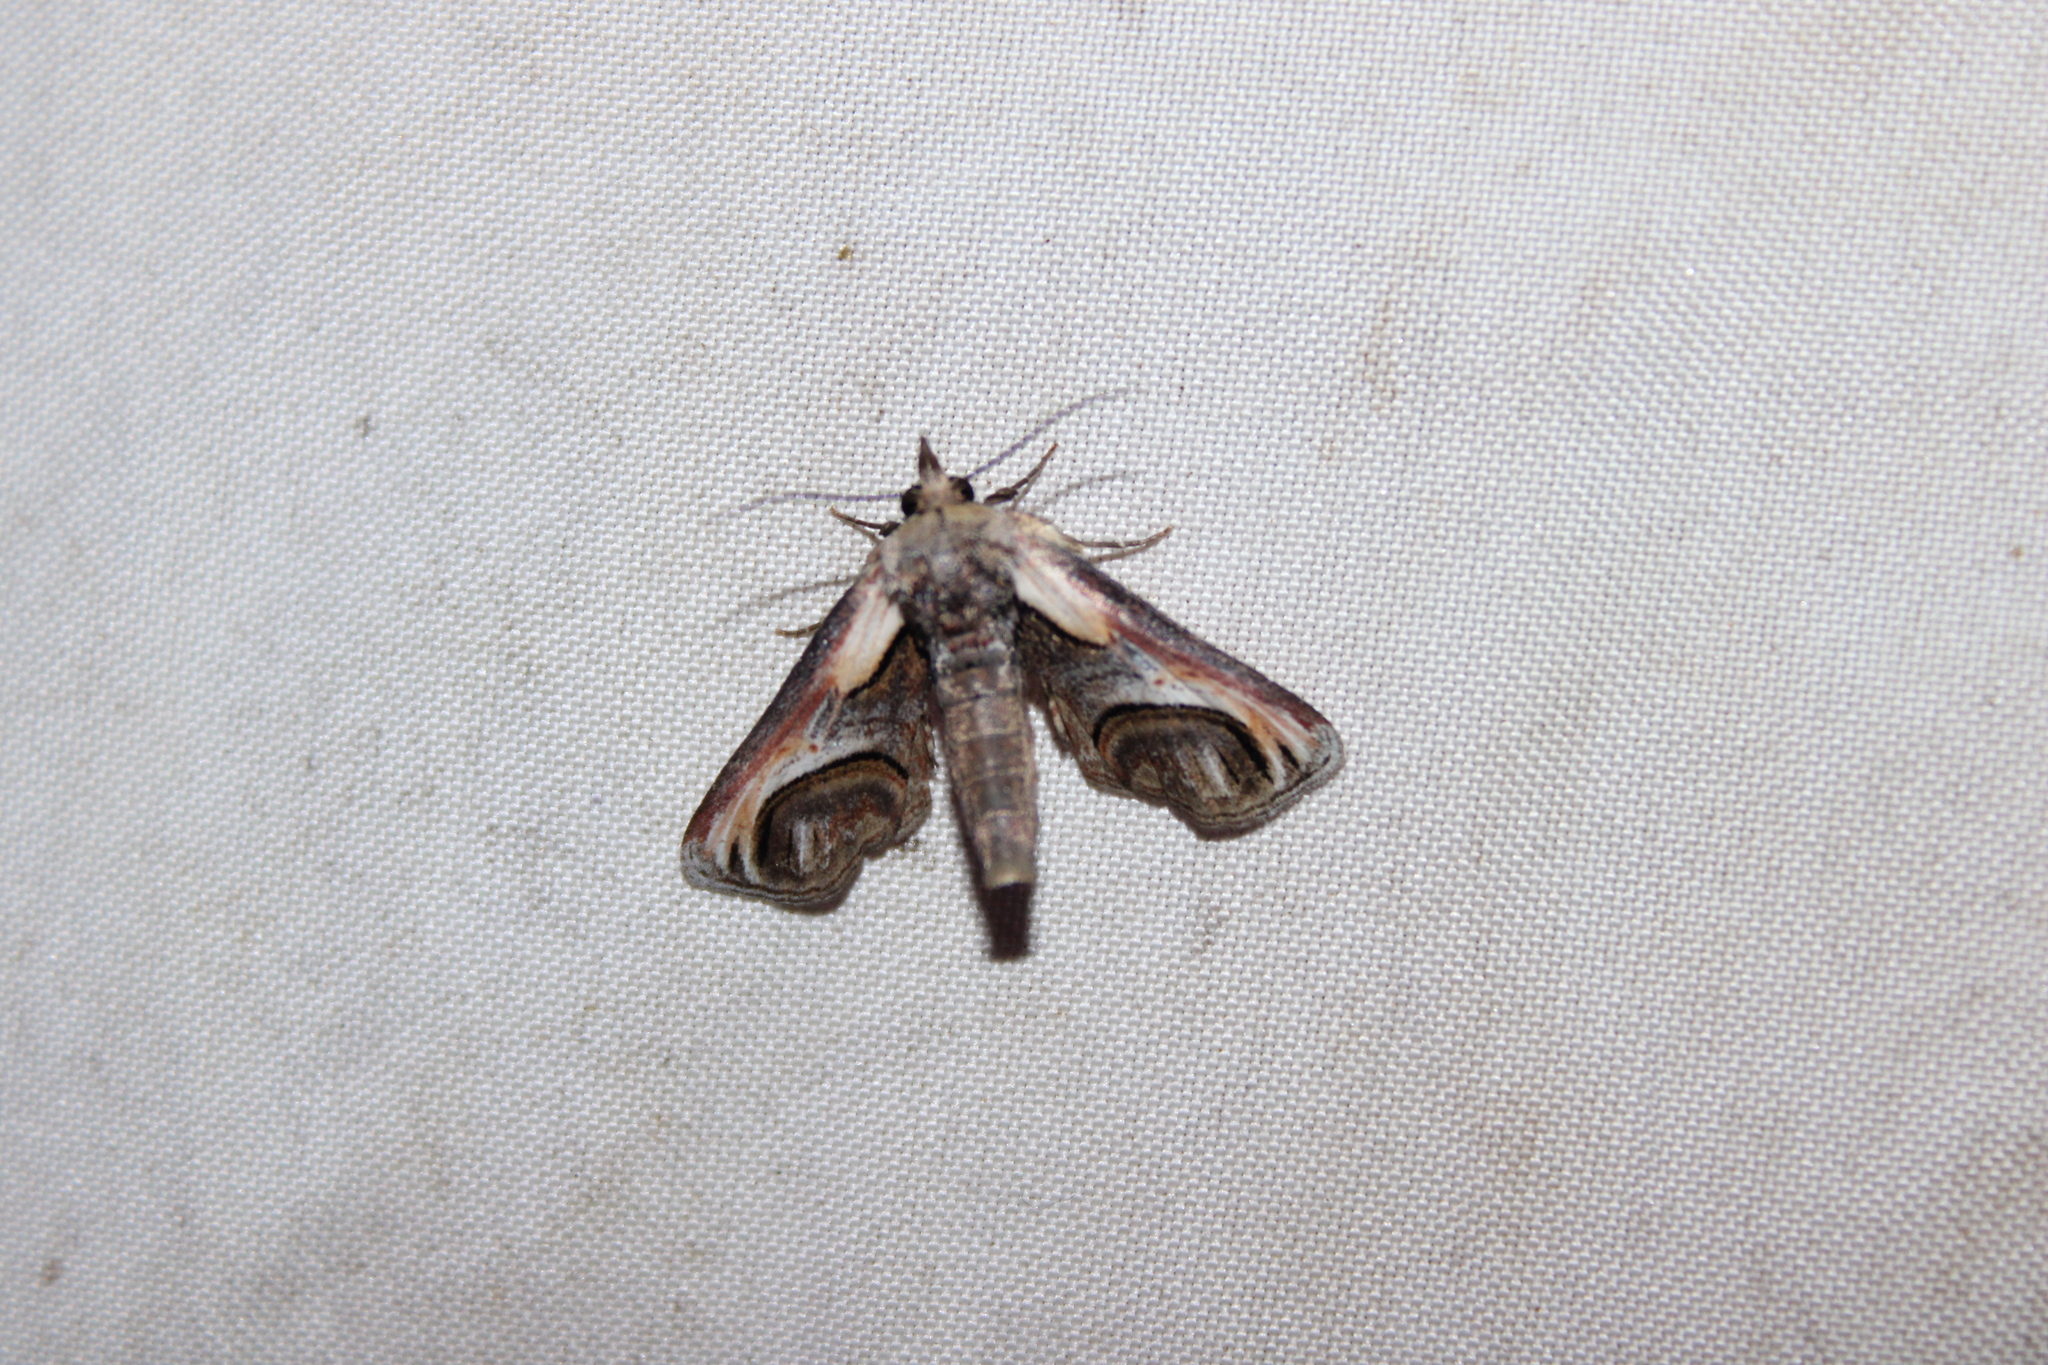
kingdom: Animalia
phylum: Arthropoda
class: Insecta
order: Lepidoptera
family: Euteliidae
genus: Paectes
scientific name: Paectes oculatrix
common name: Eyed paectes moth
